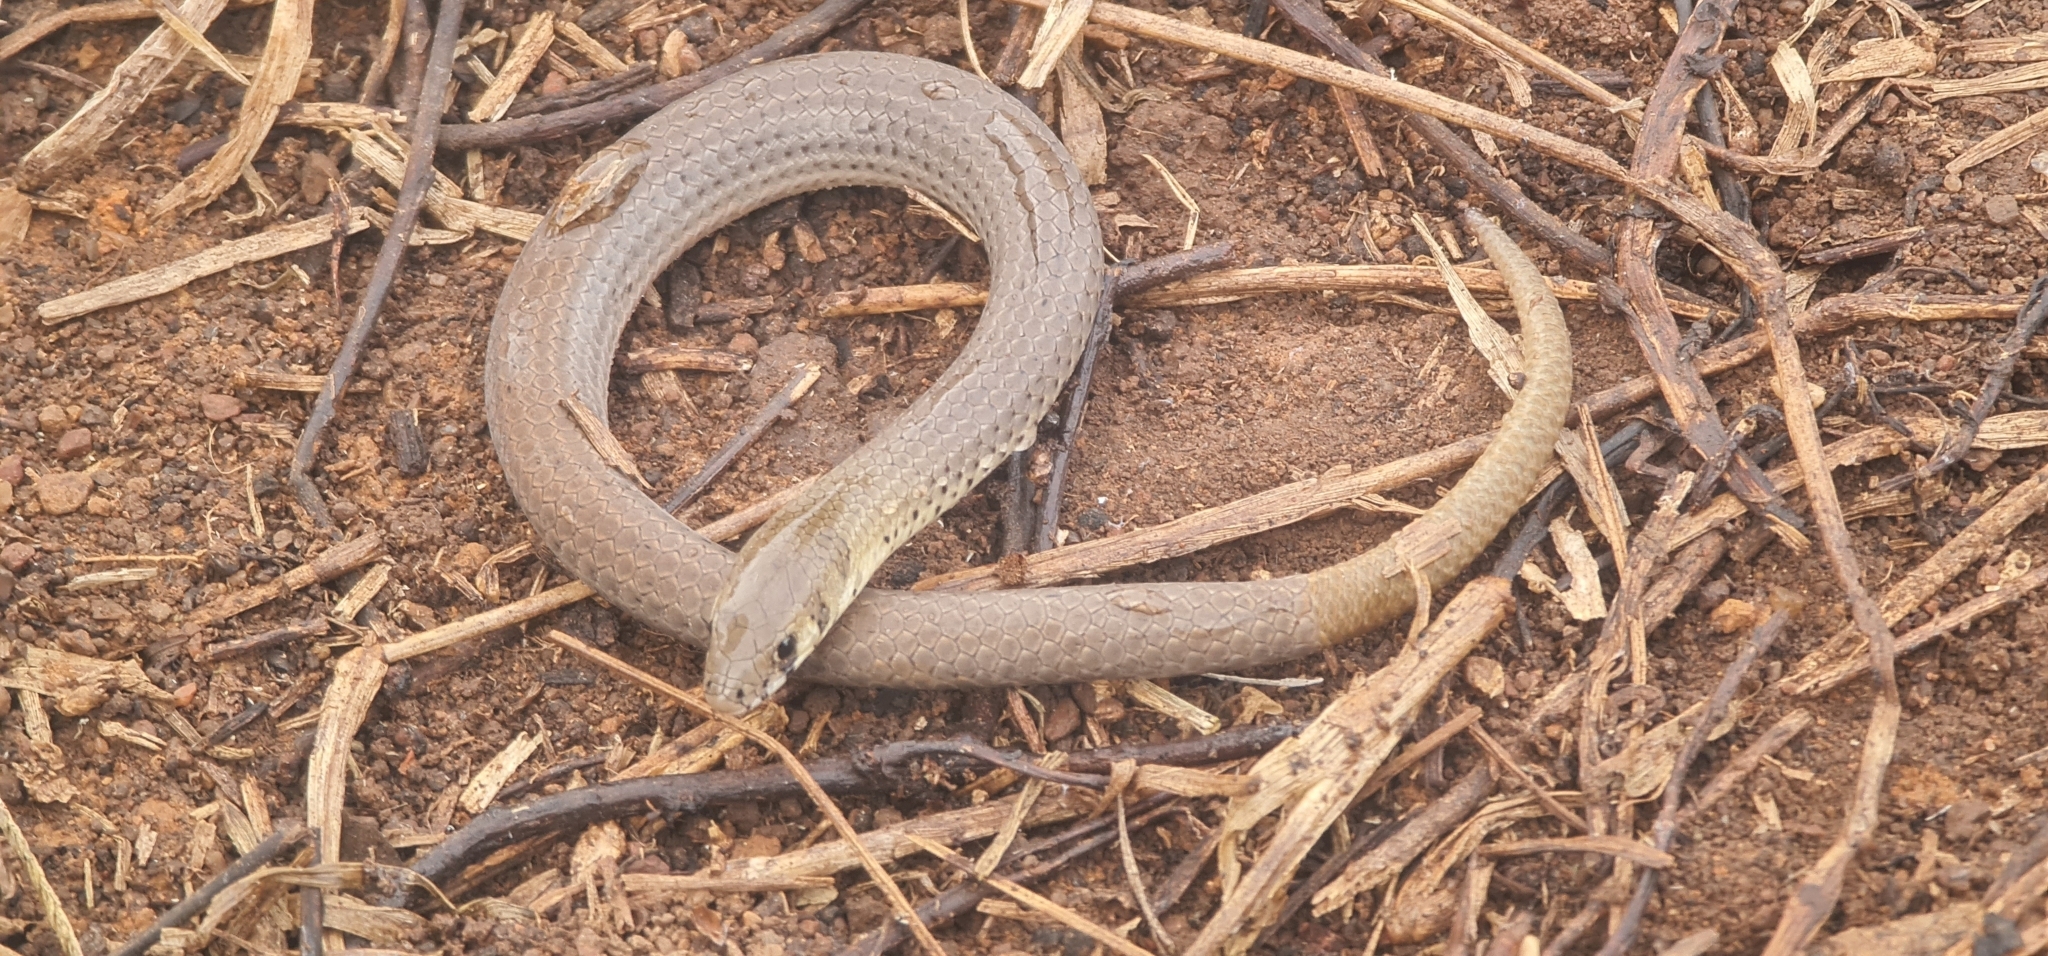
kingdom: Animalia
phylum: Chordata
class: Squamata
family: Pygopodidae
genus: Delma
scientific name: Delma plebeia
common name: Leaden delma
